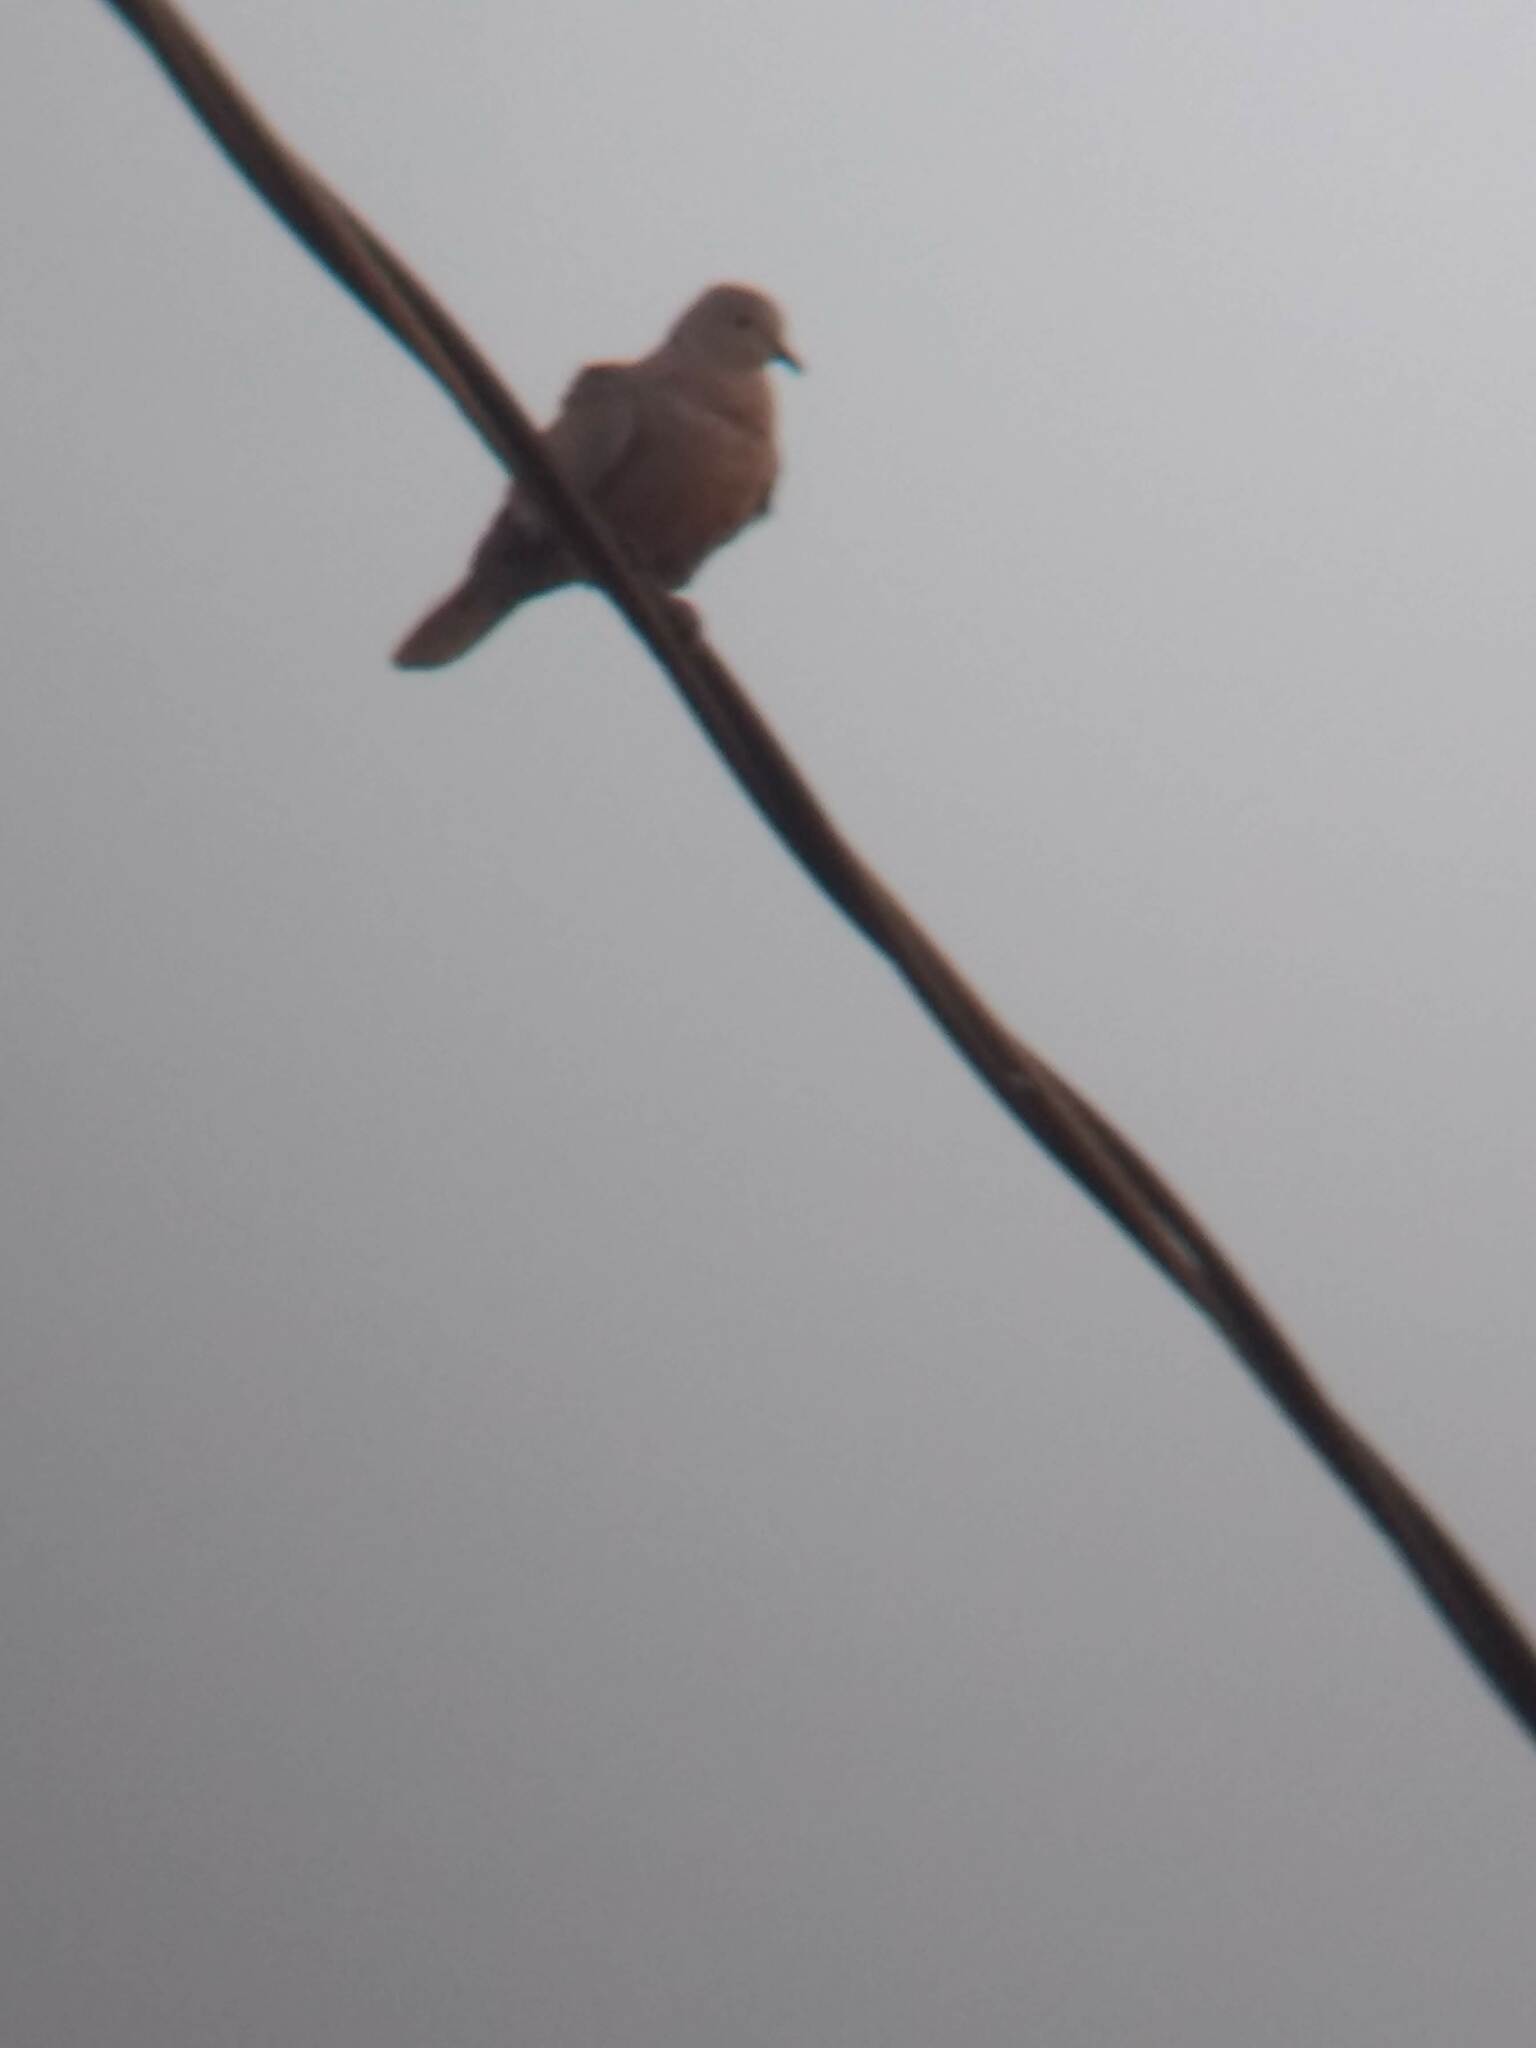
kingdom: Animalia
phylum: Chordata
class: Aves
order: Columbiformes
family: Columbidae
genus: Streptopelia
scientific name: Streptopelia decaocto
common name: Eurasian collared dove
